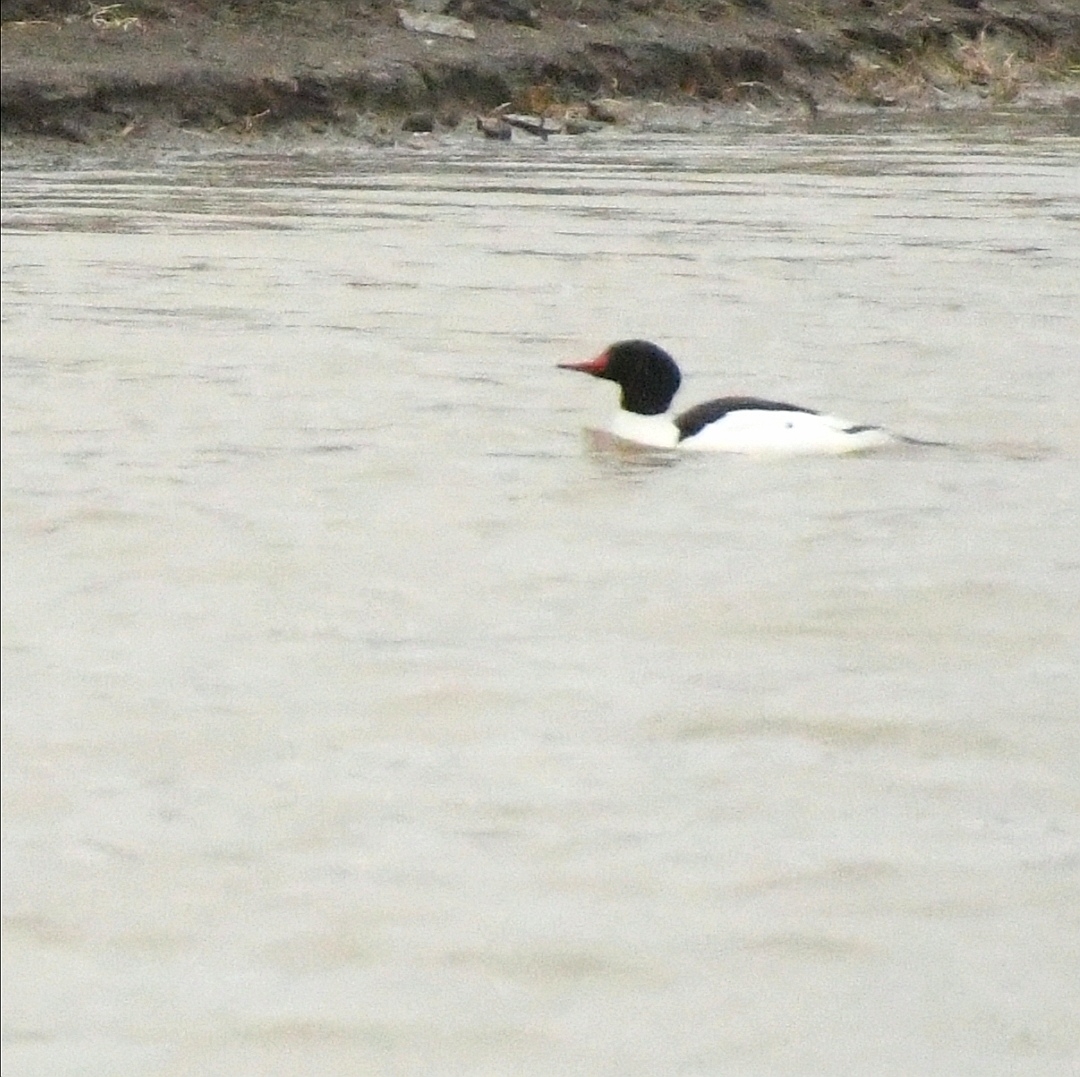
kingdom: Animalia
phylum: Chordata
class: Aves
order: Anseriformes
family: Anatidae
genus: Mergus
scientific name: Mergus merganser
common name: Common merganser
